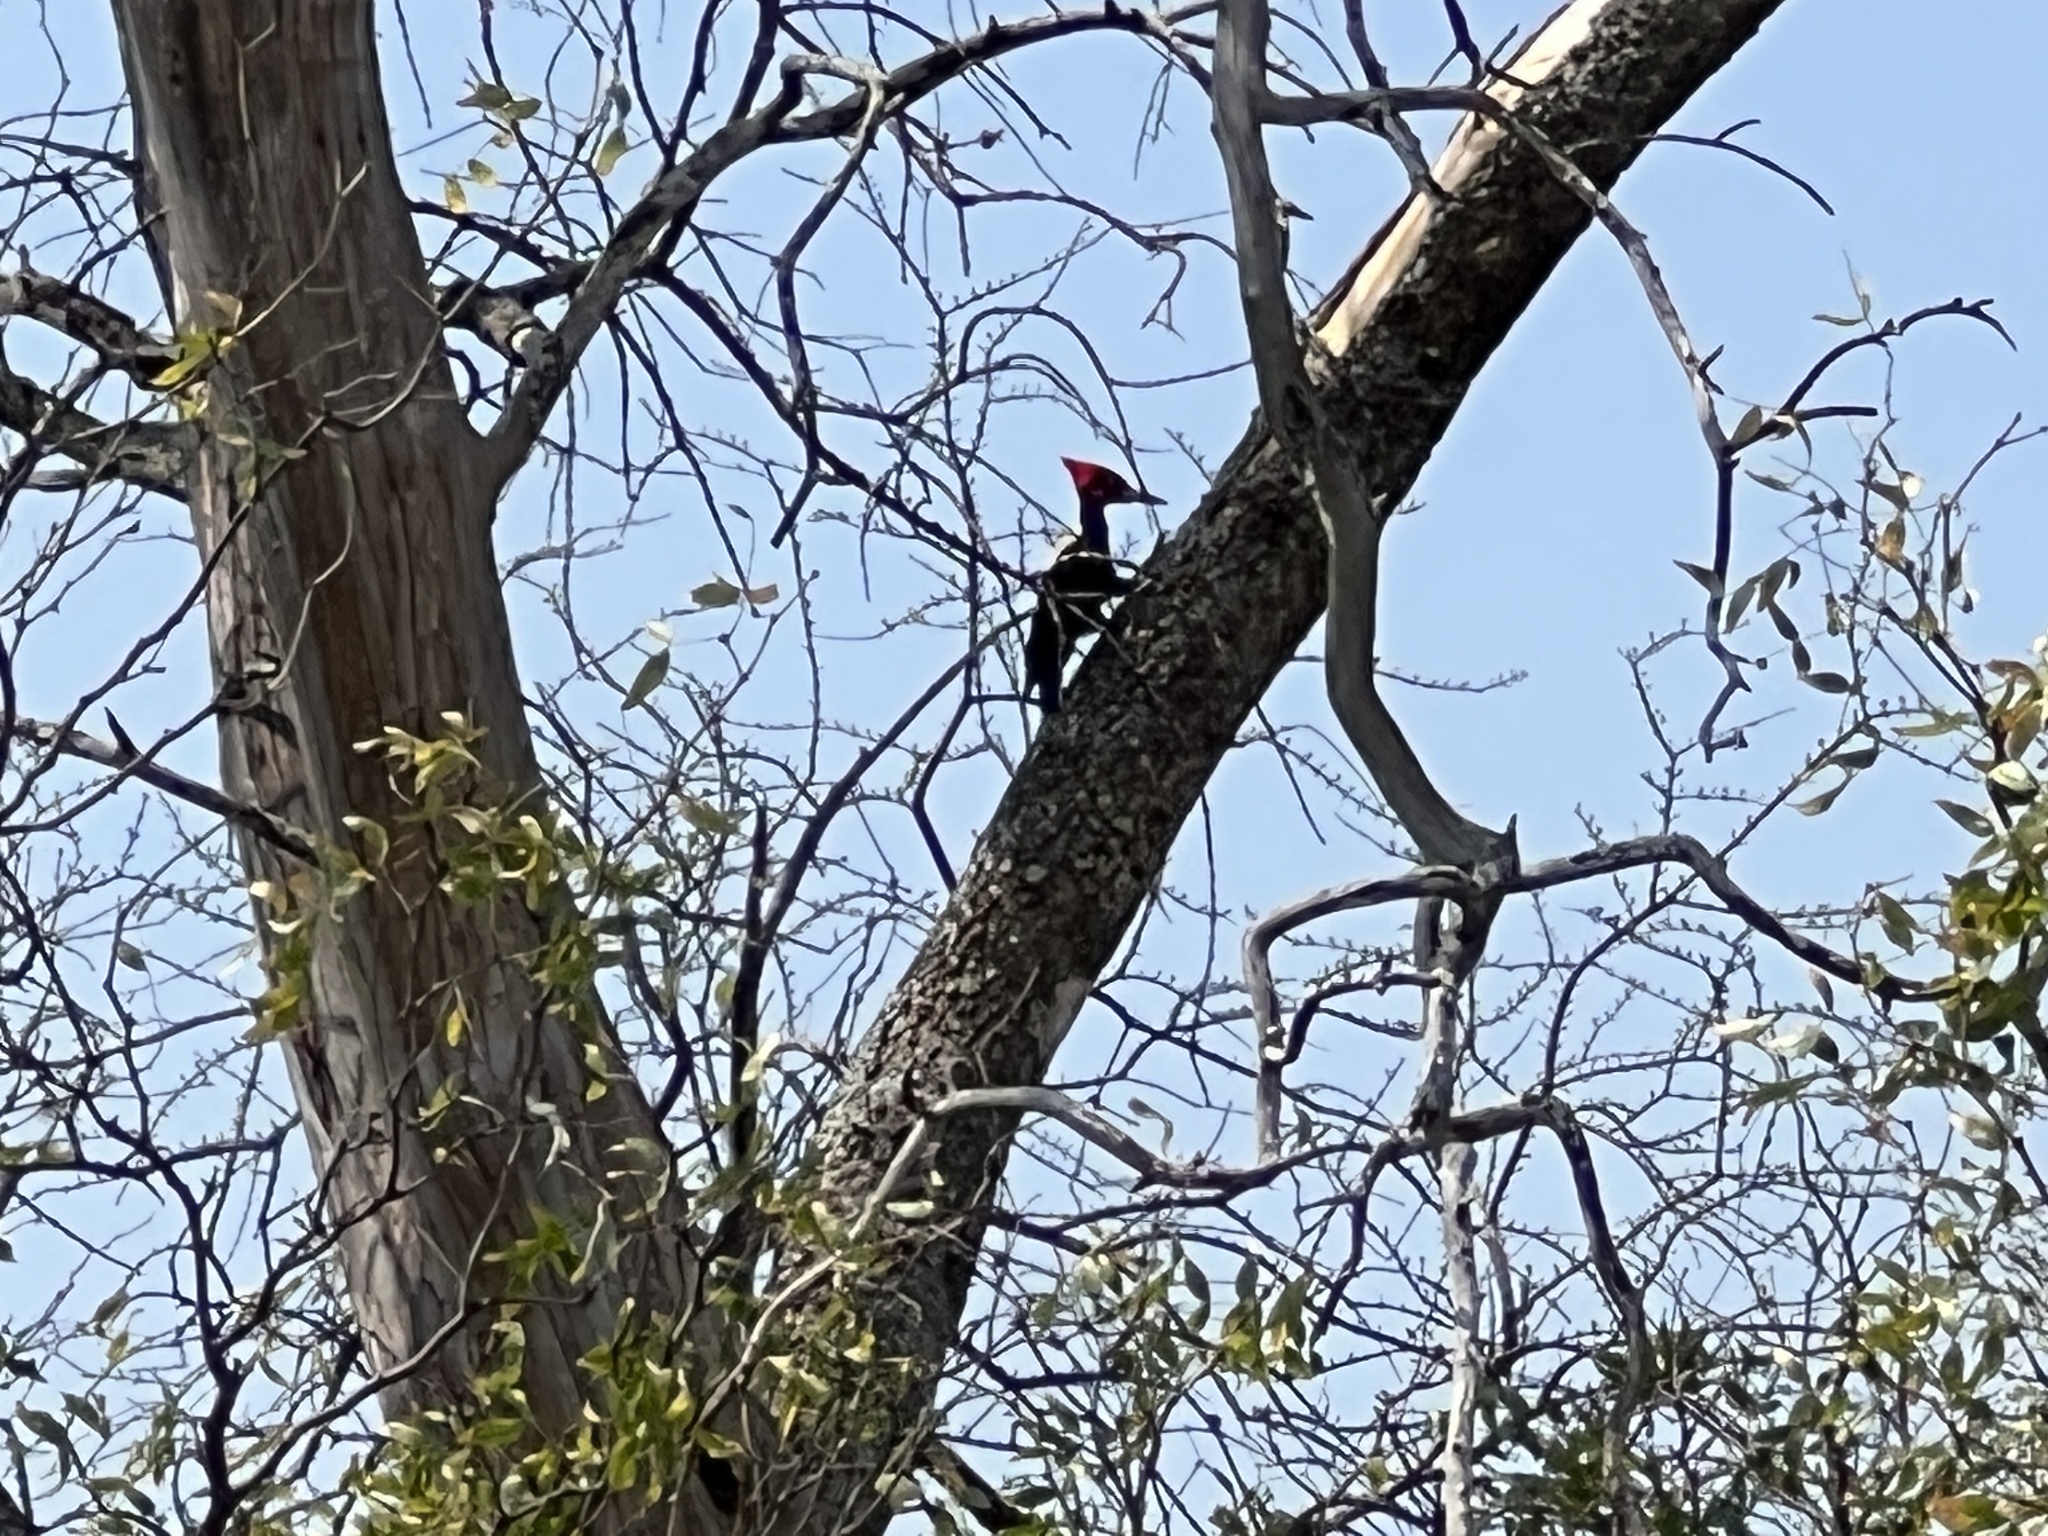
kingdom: Animalia
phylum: Chordata
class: Aves
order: Piciformes
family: Picidae
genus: Campephilus
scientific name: Campephilus leucopogon
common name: Cream-backed woodpecker
